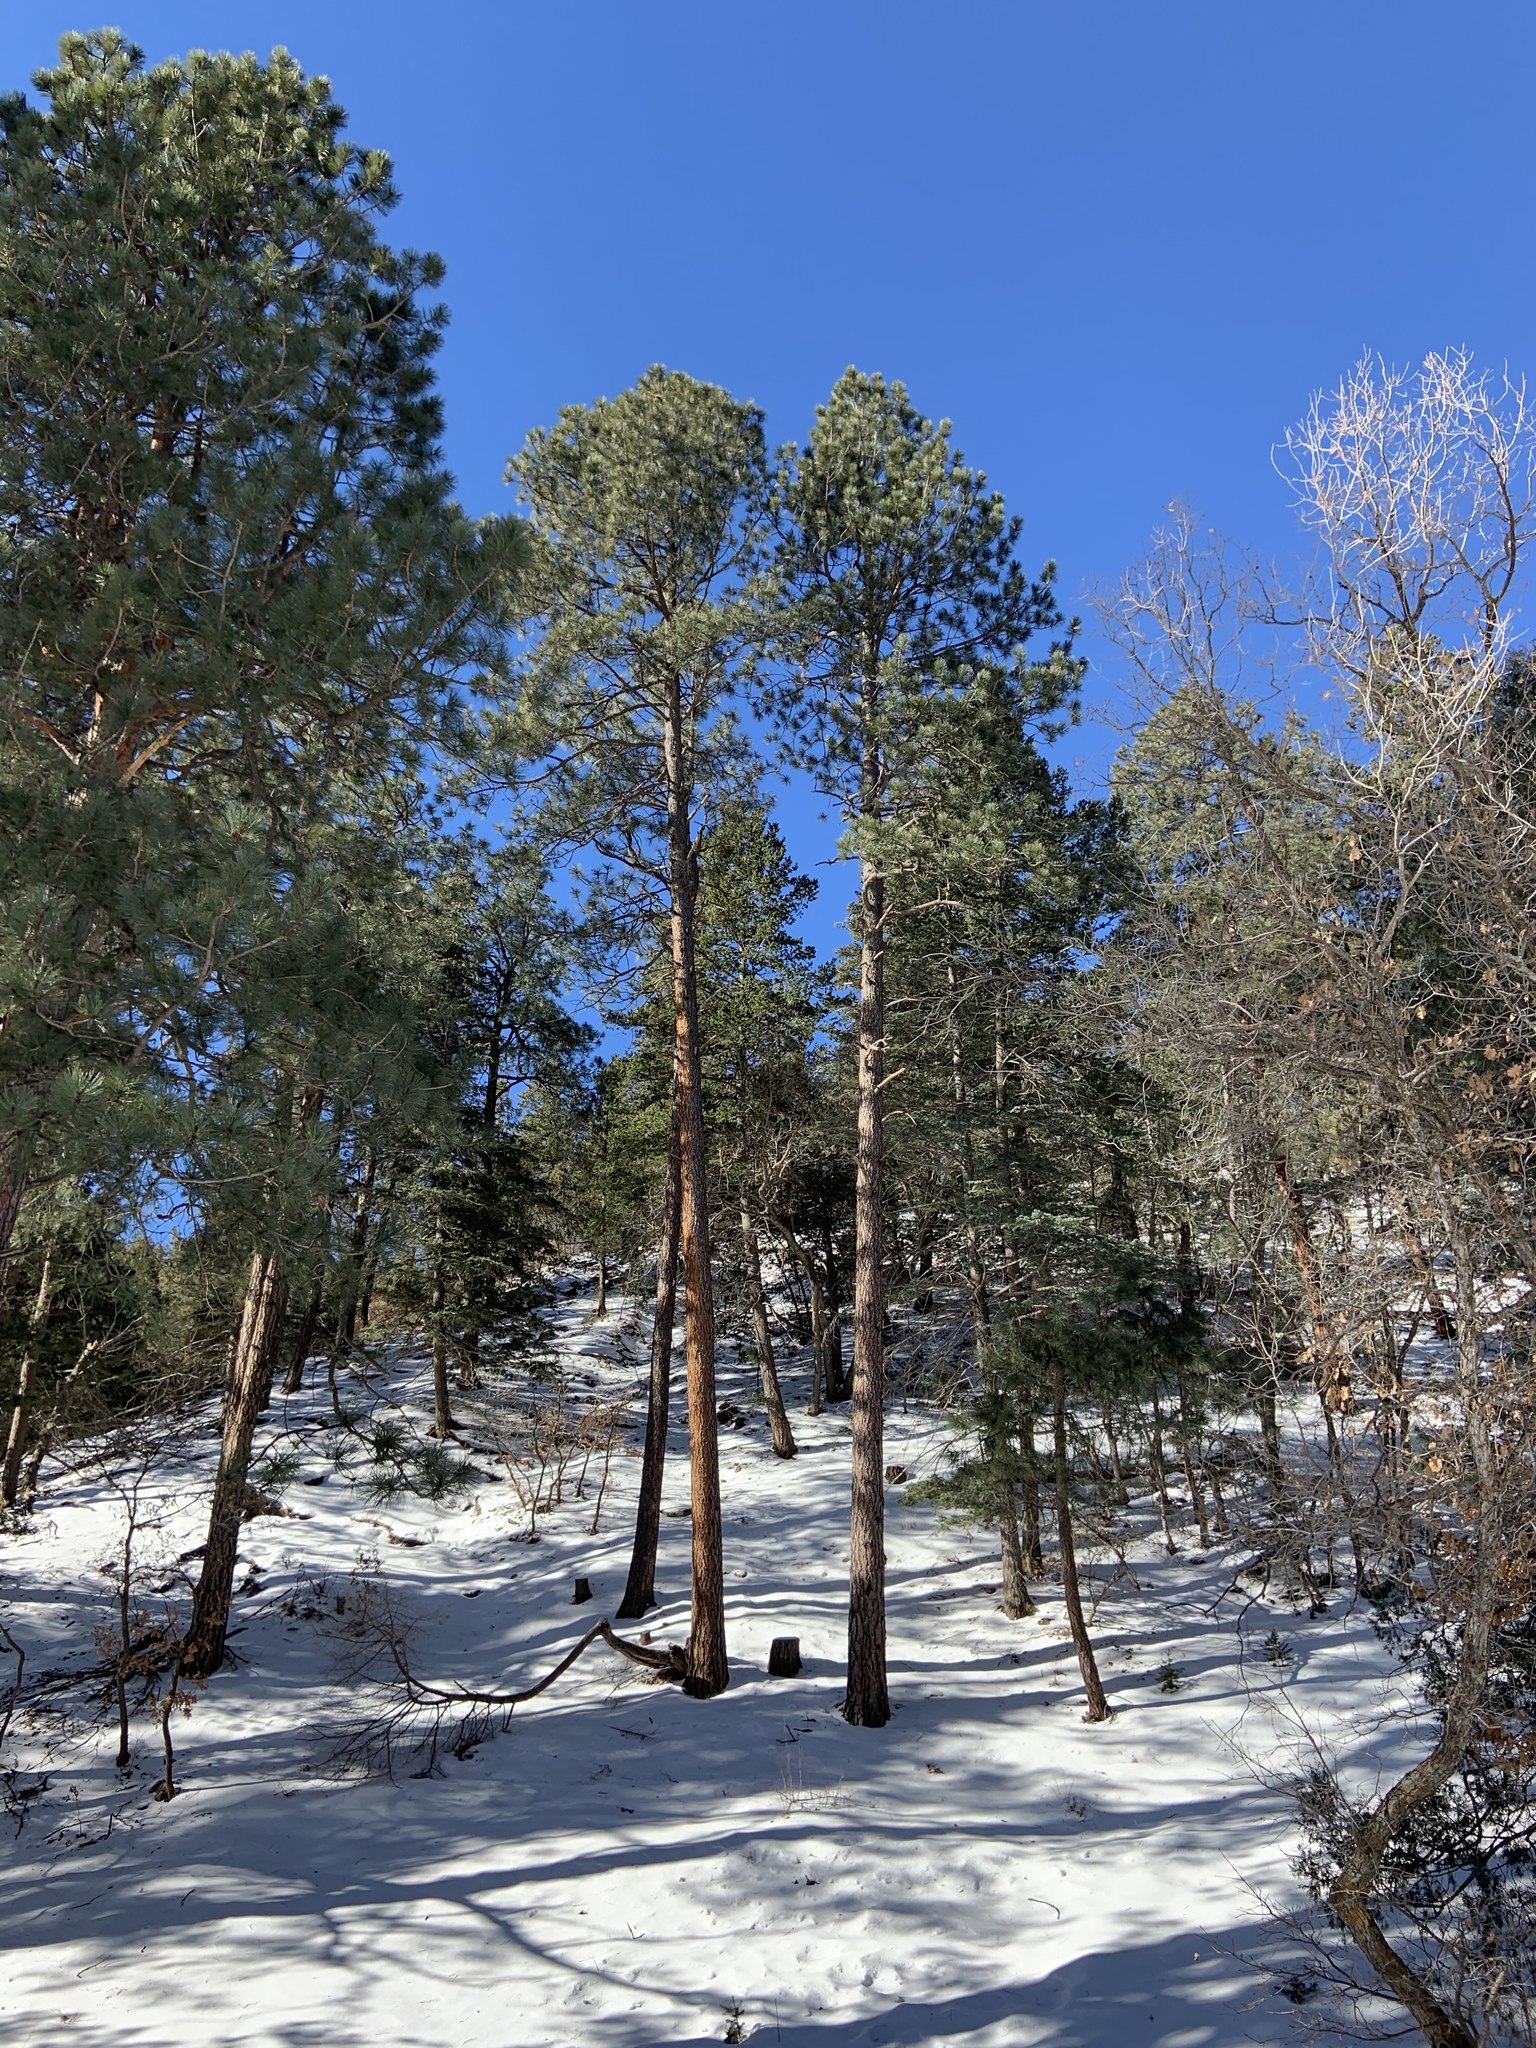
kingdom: Plantae
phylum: Tracheophyta
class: Pinopsida
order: Pinales
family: Pinaceae
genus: Pinus
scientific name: Pinus ponderosa
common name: Western yellow-pine
